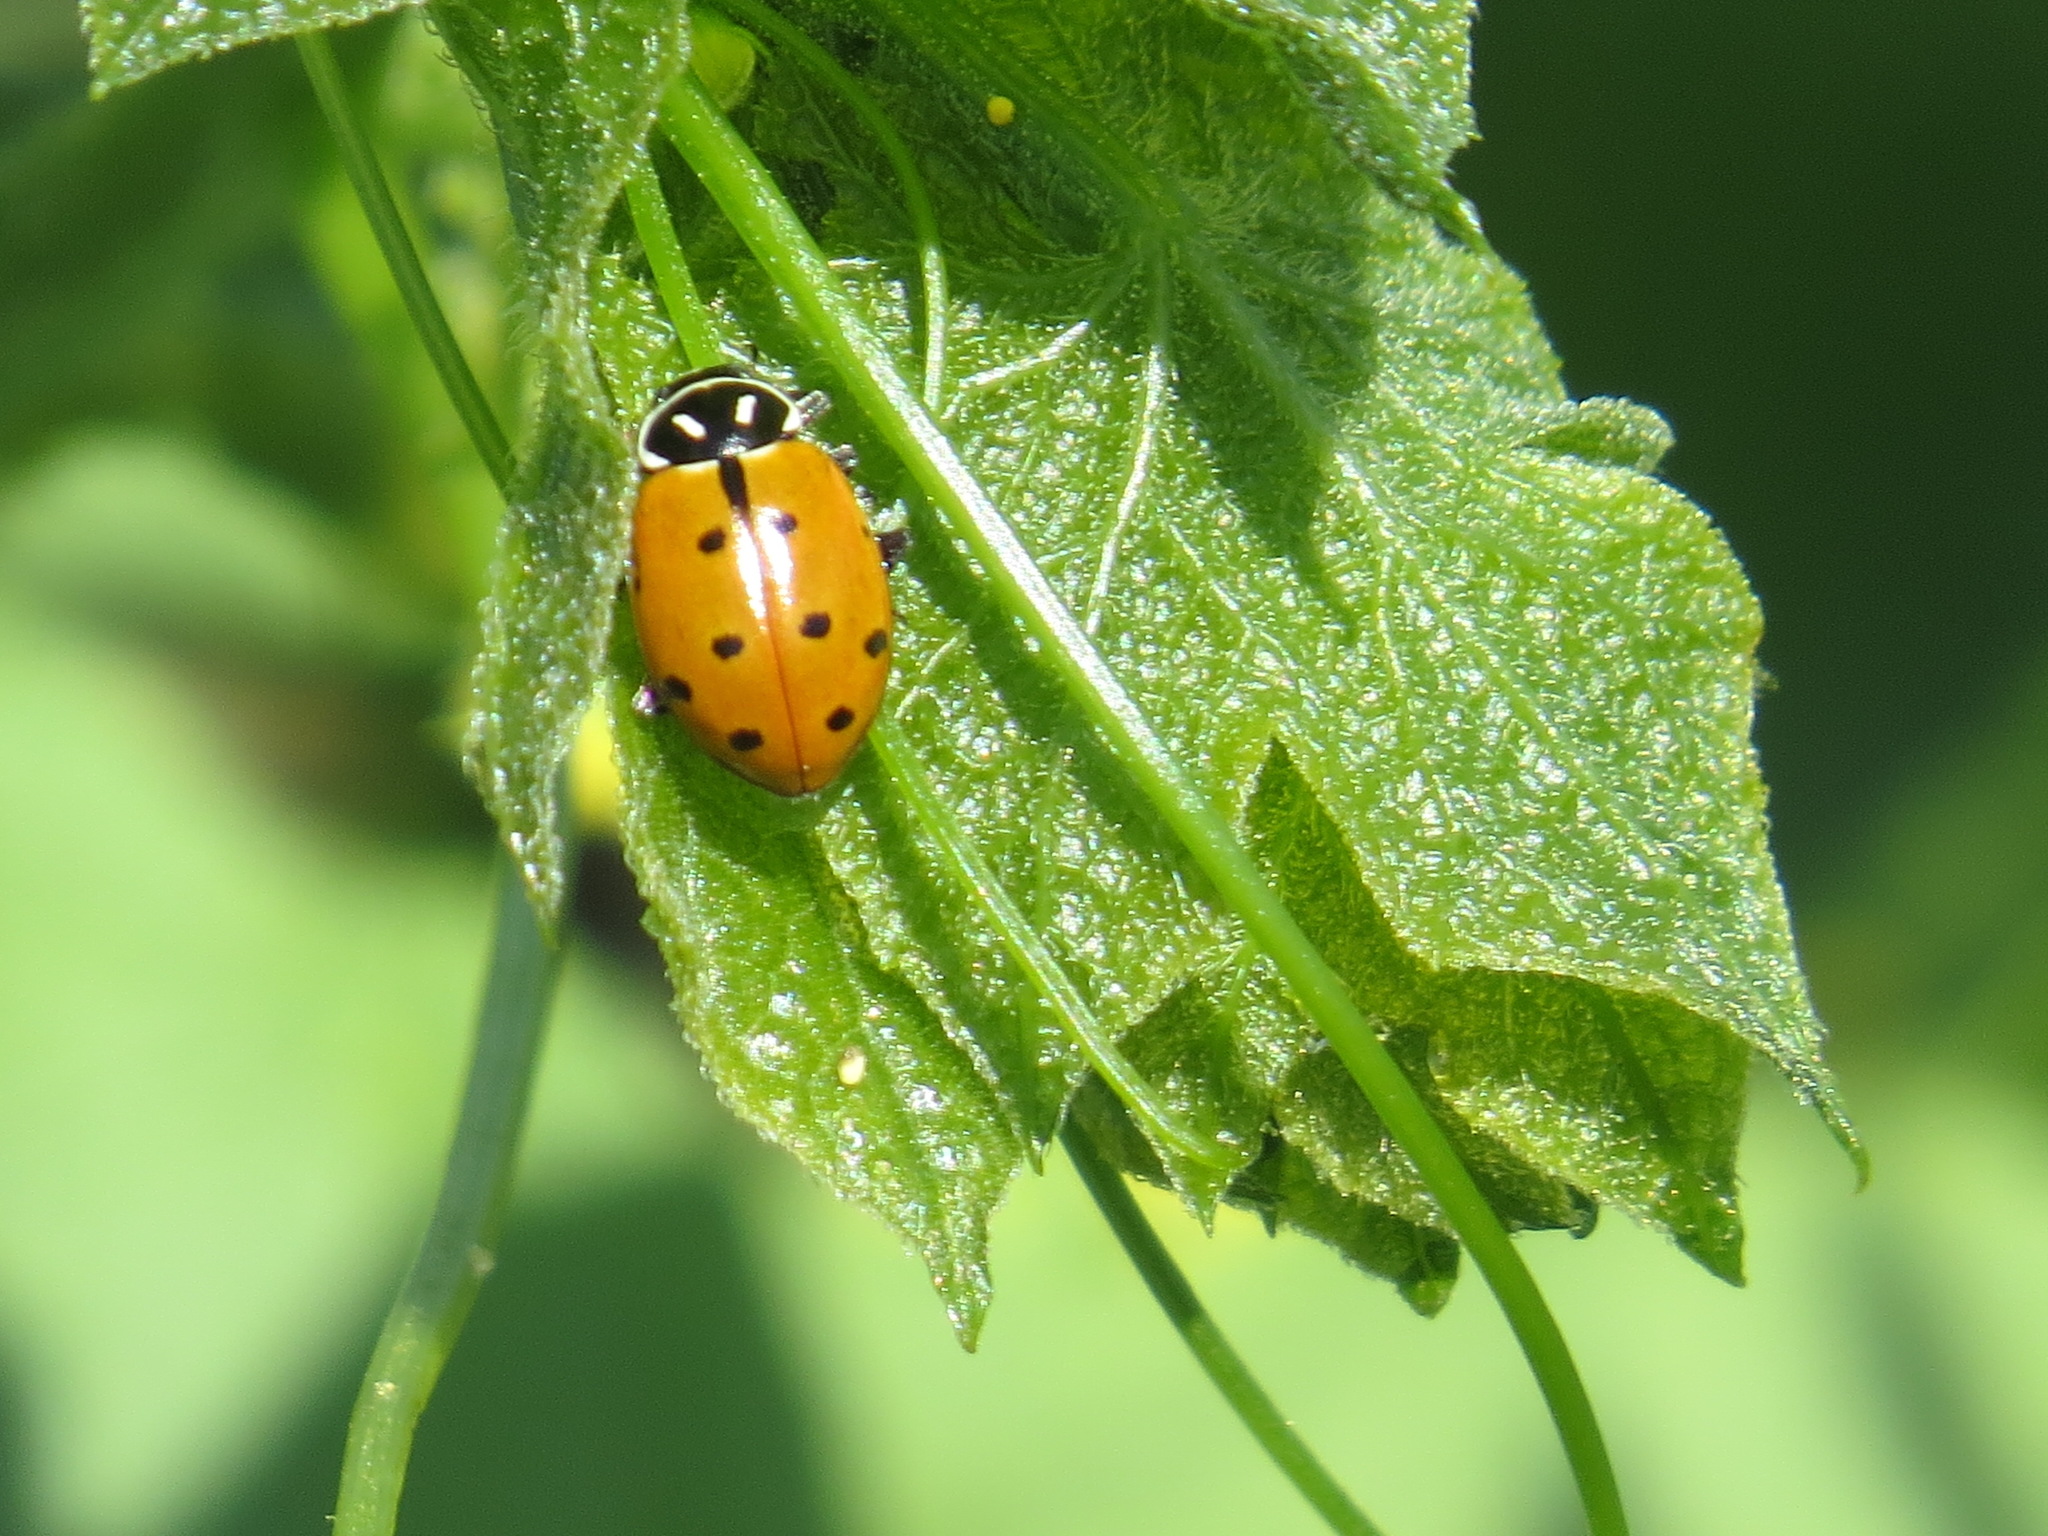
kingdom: Animalia
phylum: Arthropoda
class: Insecta
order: Coleoptera
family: Coccinellidae
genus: Hippodamia
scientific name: Hippodamia convergens
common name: Convergent lady beetle
